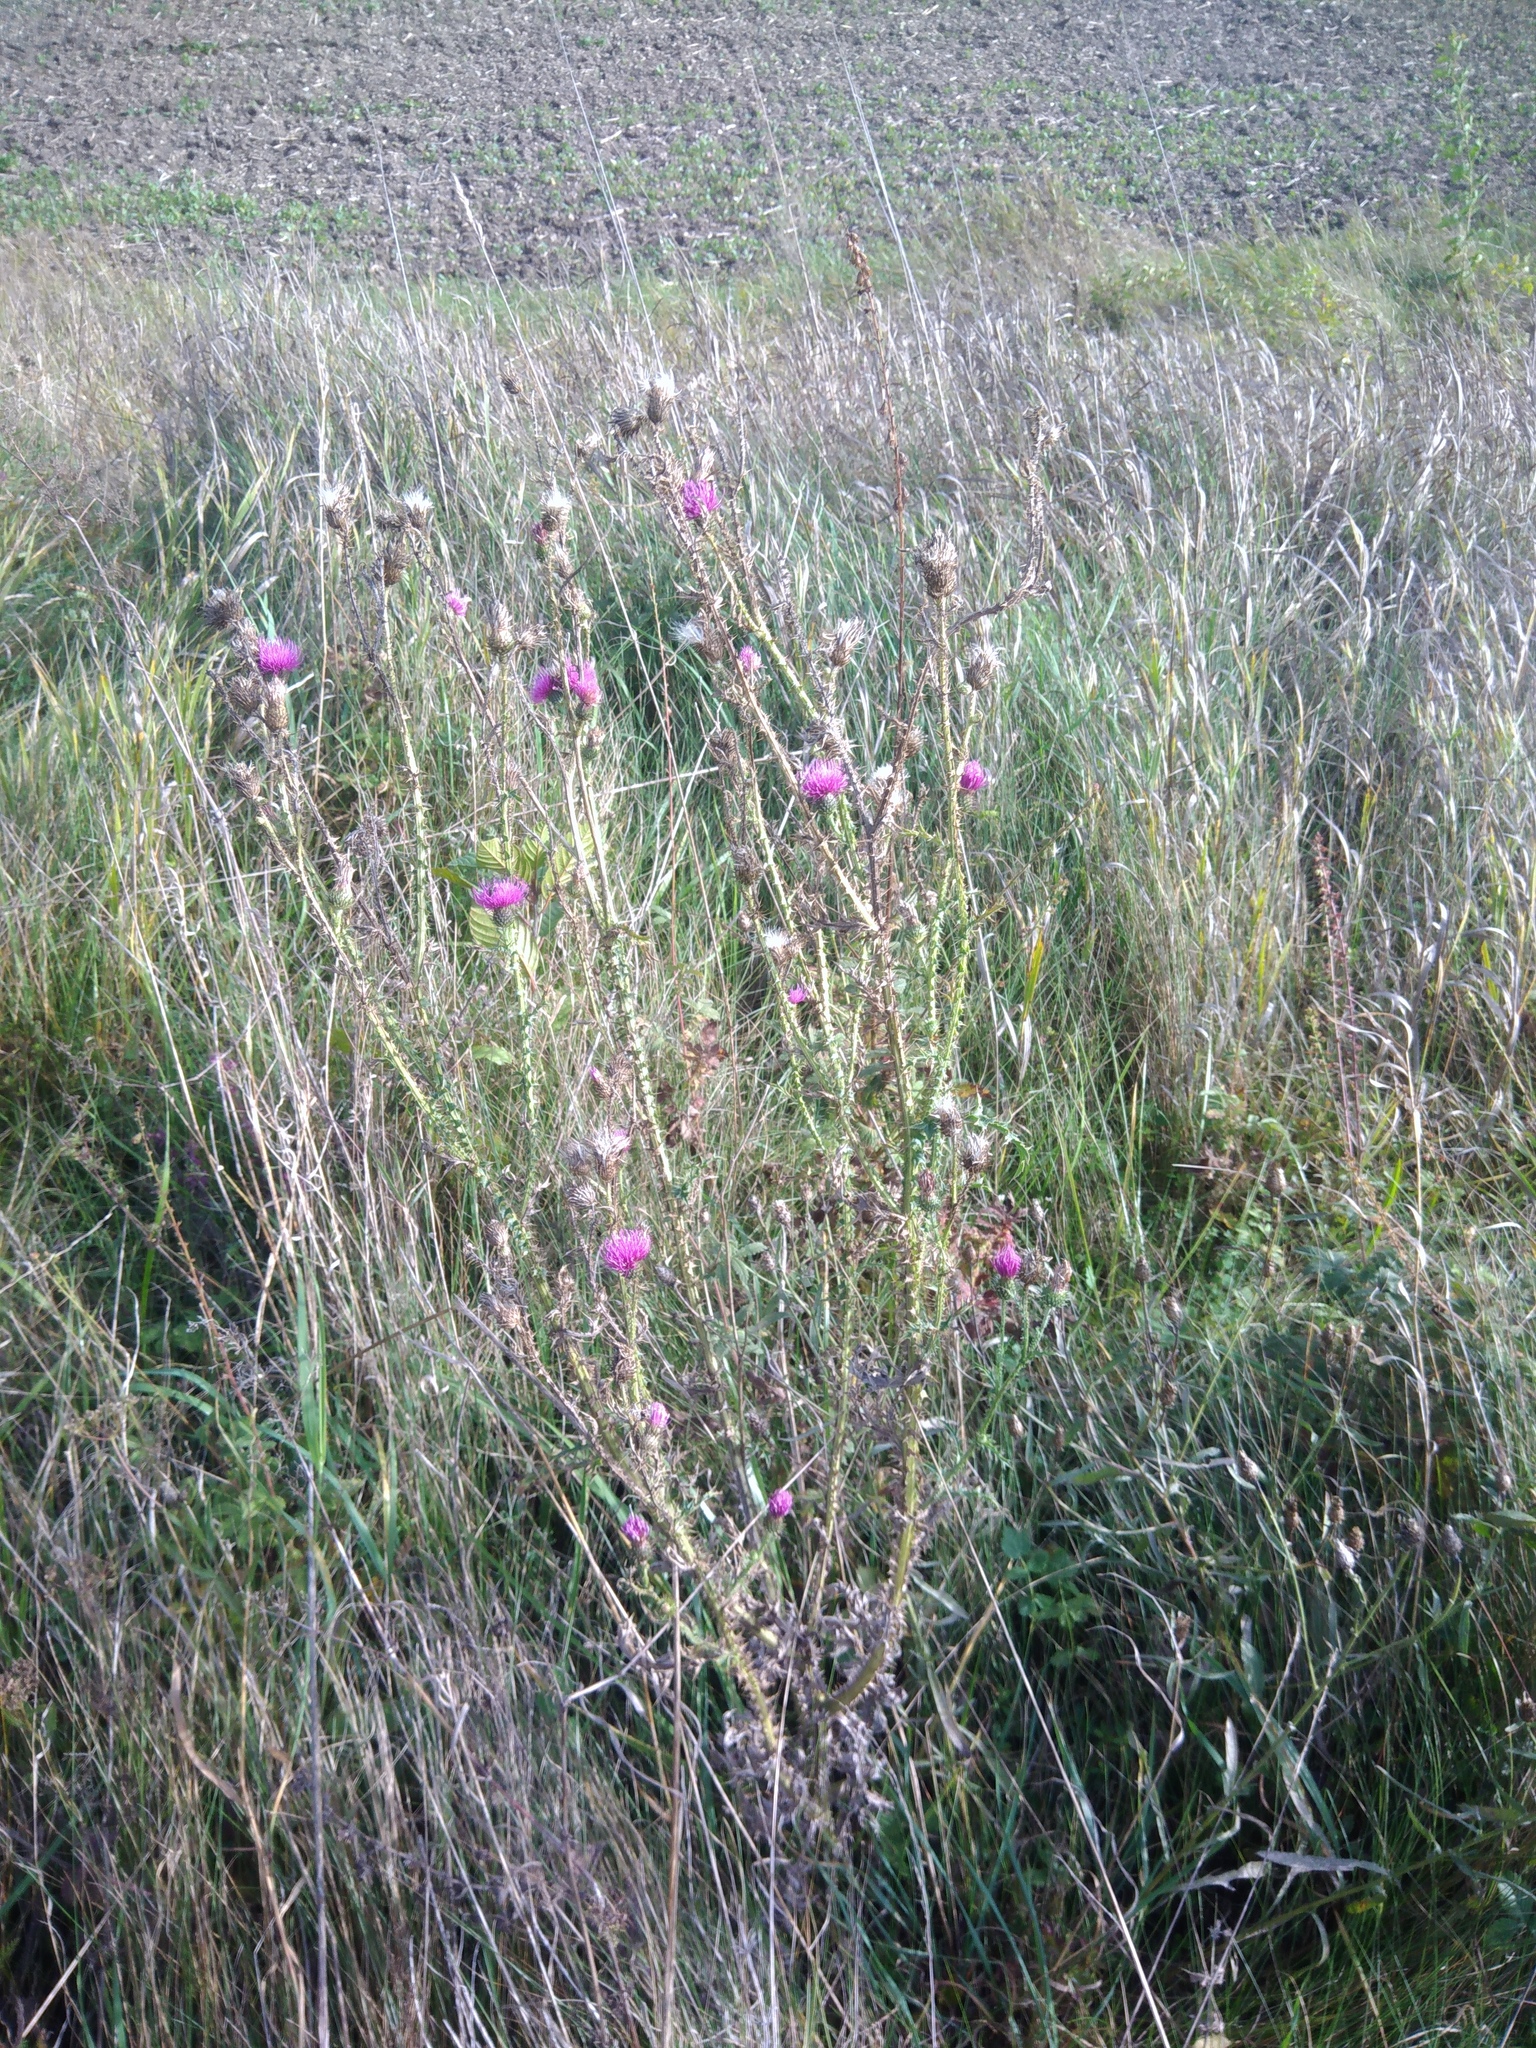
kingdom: Plantae
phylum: Tracheophyta
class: Magnoliopsida
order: Asterales
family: Asteraceae
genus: Carduus
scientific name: Carduus acanthoides
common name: Plumeless thistle
